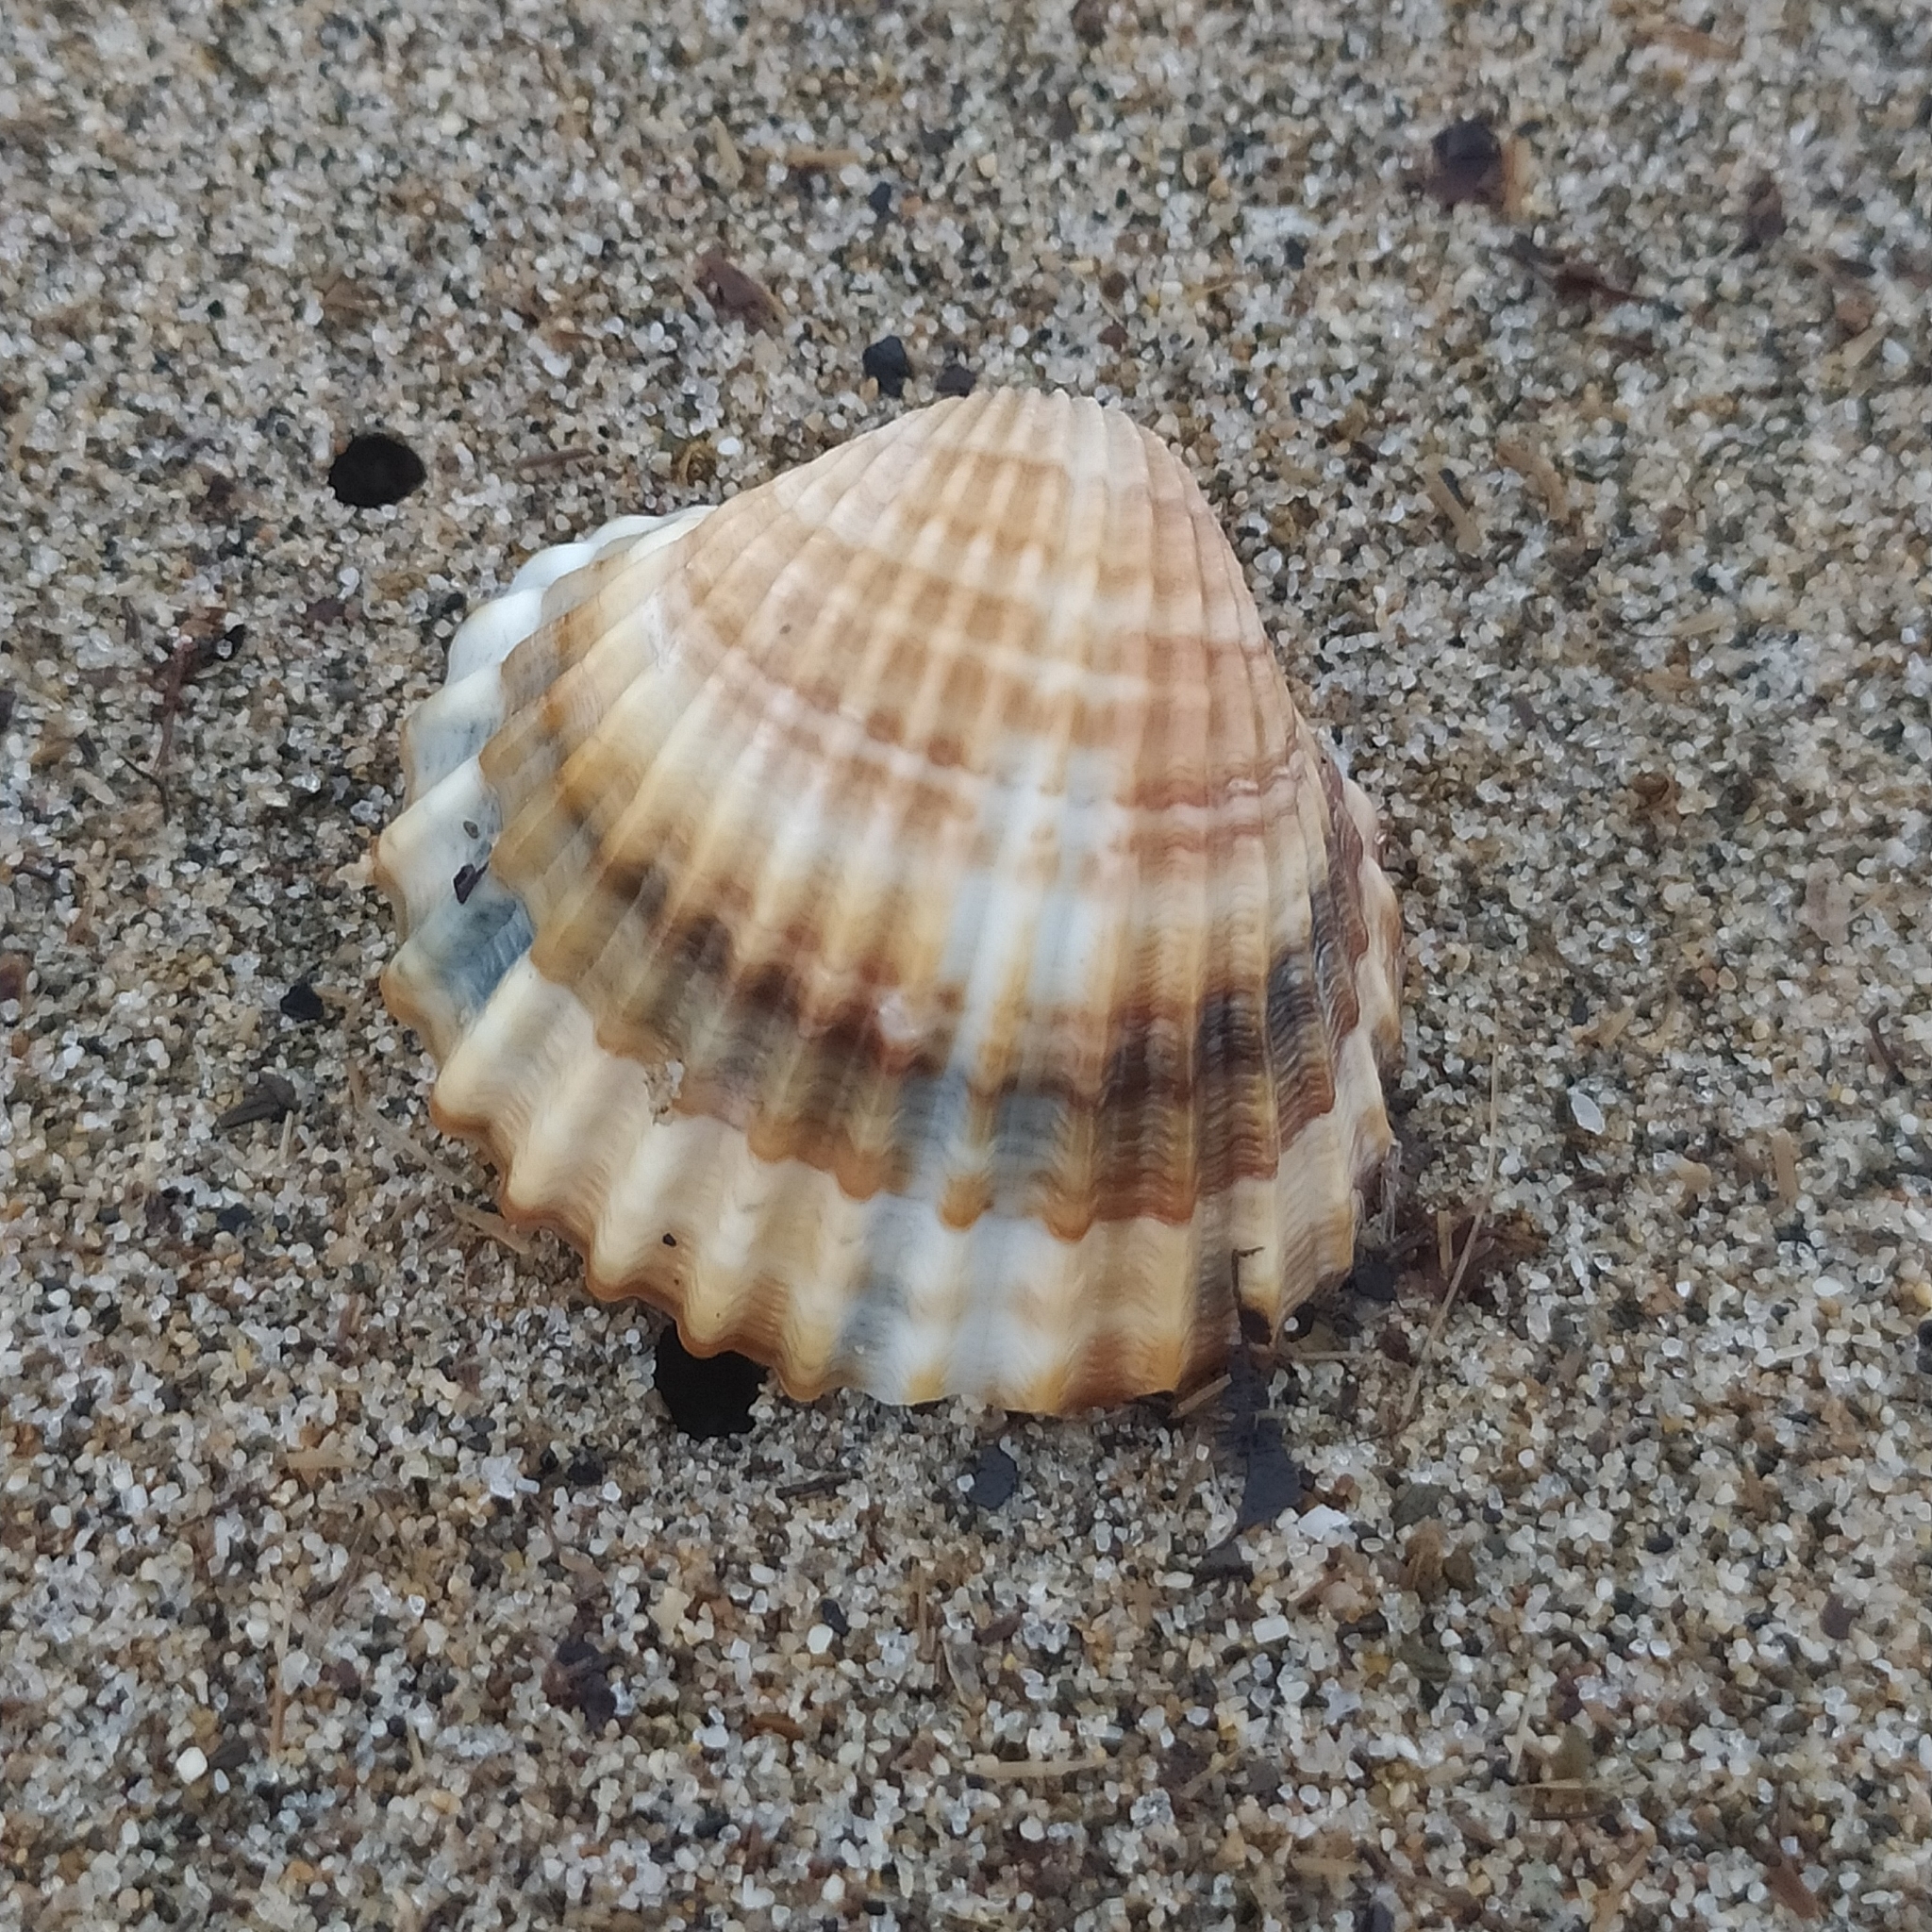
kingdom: Animalia
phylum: Mollusca
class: Bivalvia
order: Cardiida
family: Cardiidae
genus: Acanthocardia
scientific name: Acanthocardia tuberculata
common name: Rough cockle
